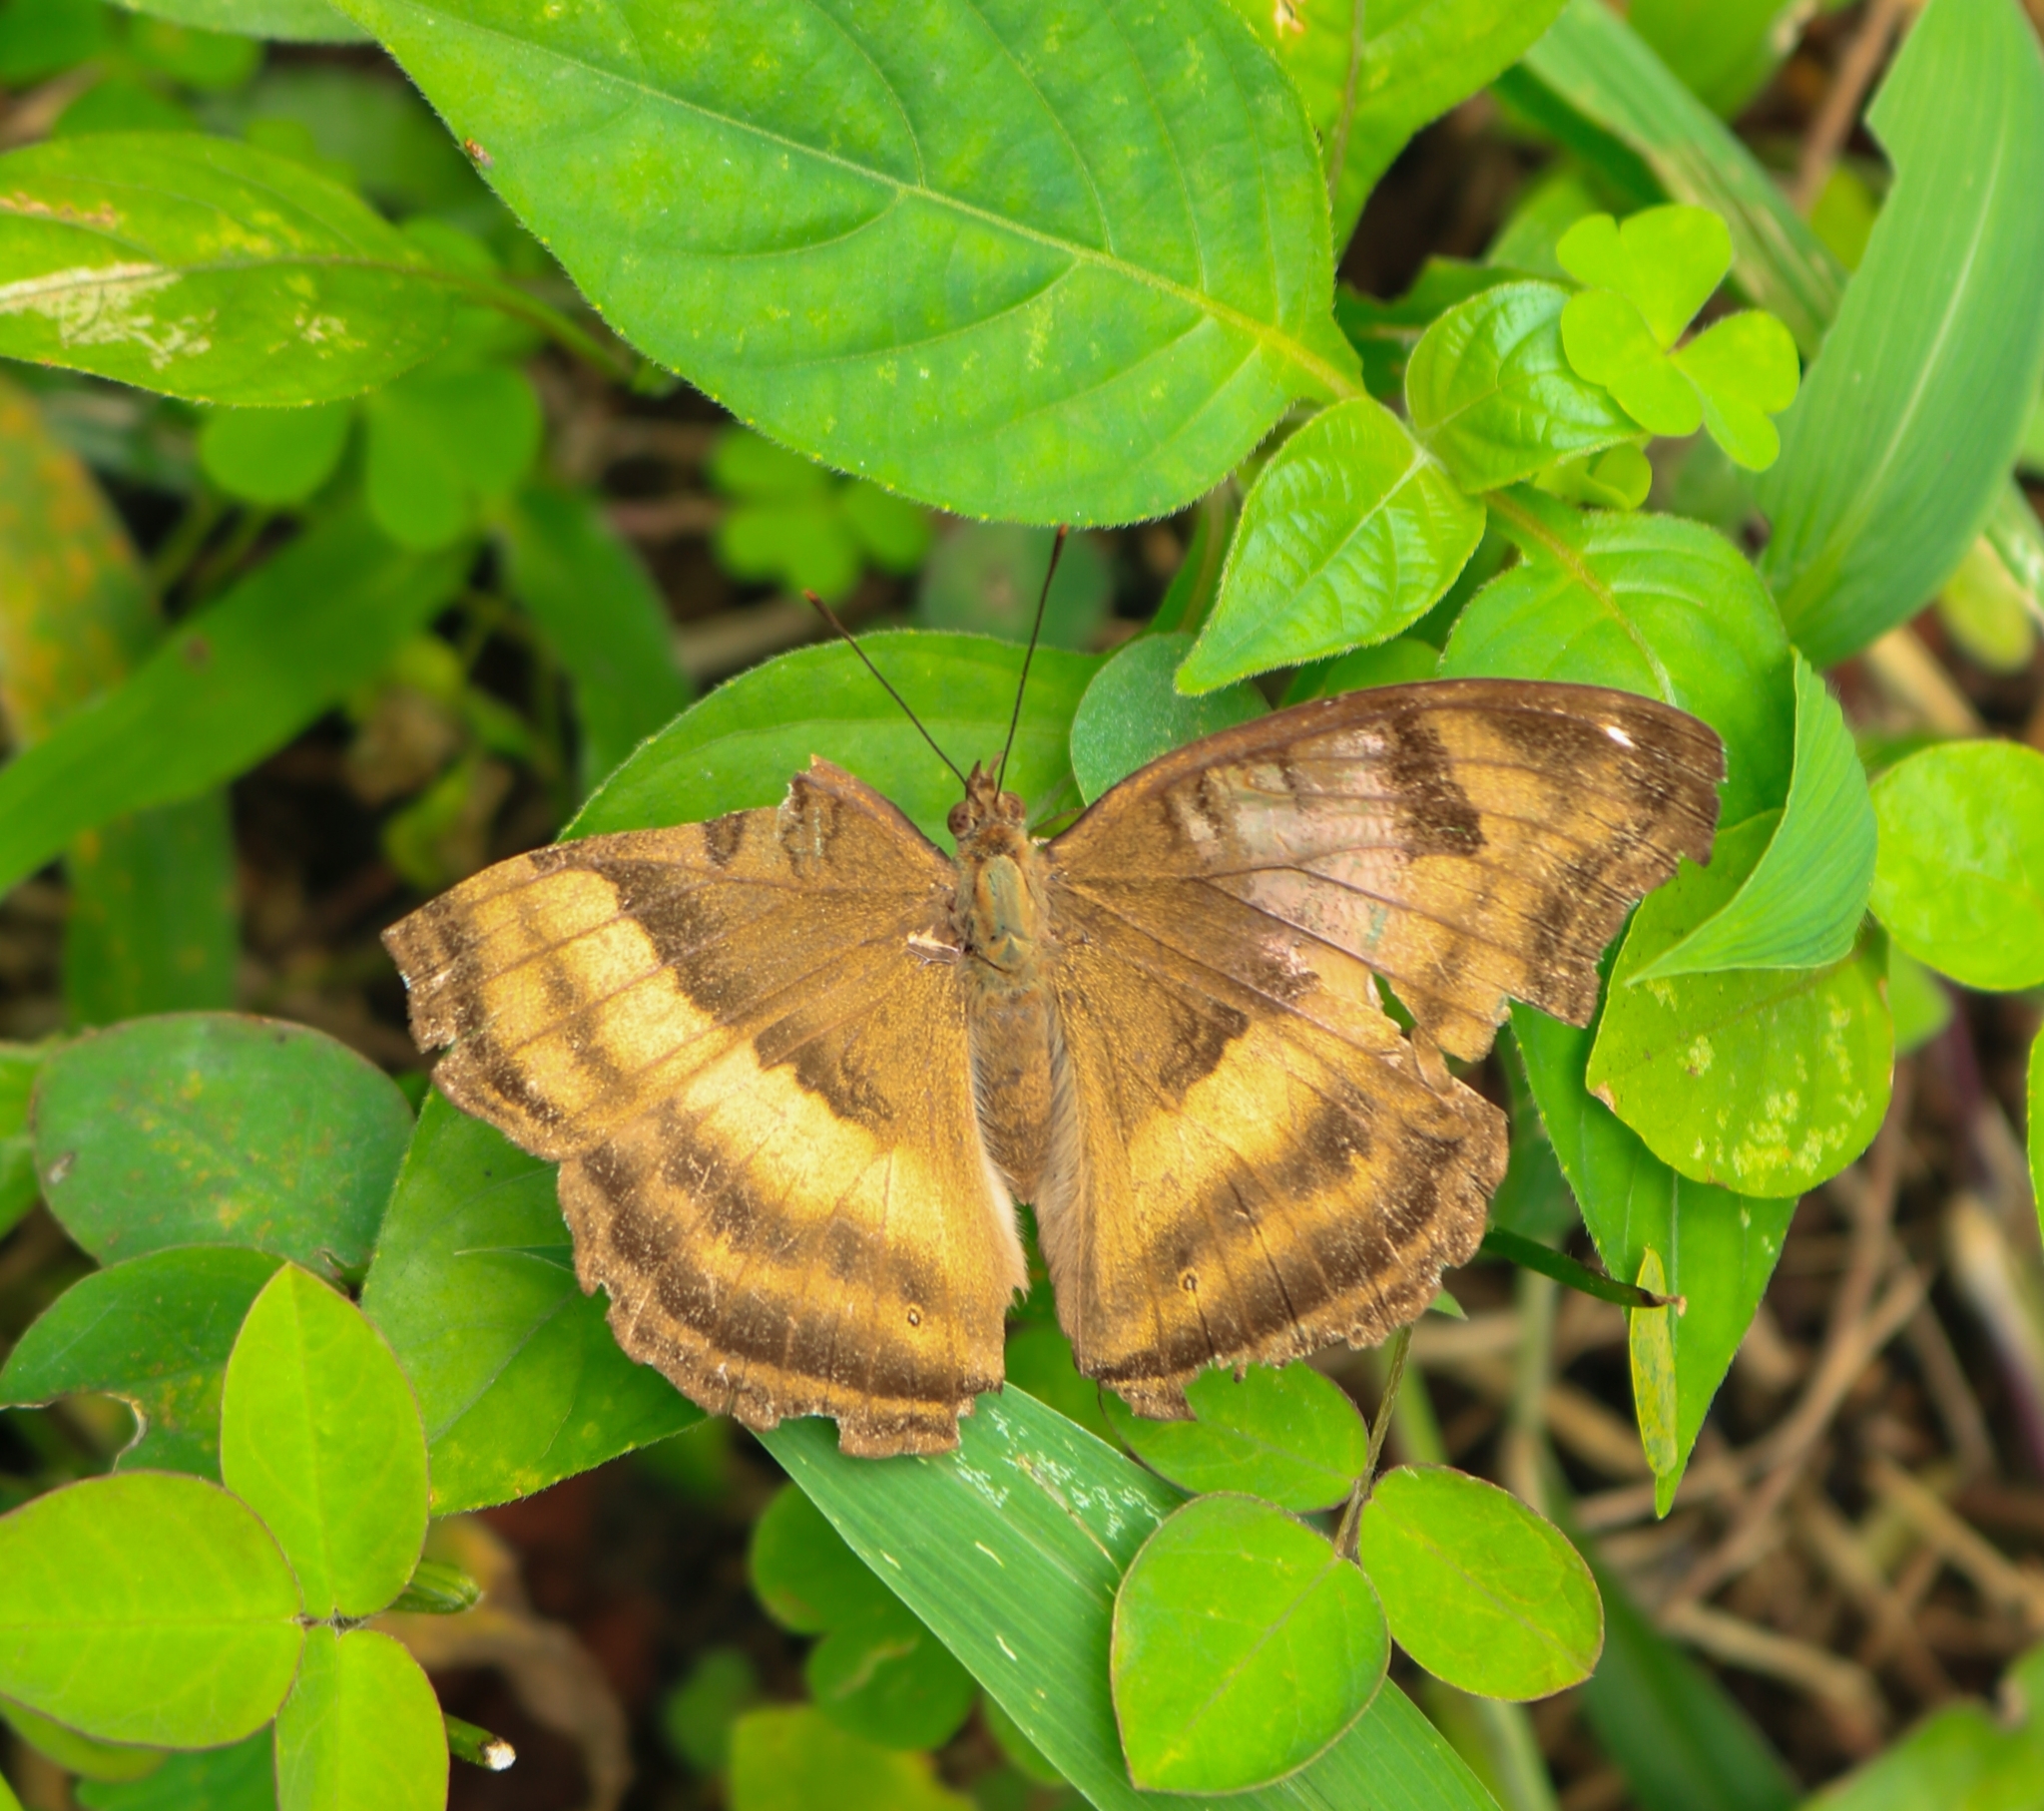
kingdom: Animalia
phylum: Arthropoda
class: Insecta
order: Lepidoptera
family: Nymphalidae
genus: Junonia
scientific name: Junonia iphita
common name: Chocolate pansy
